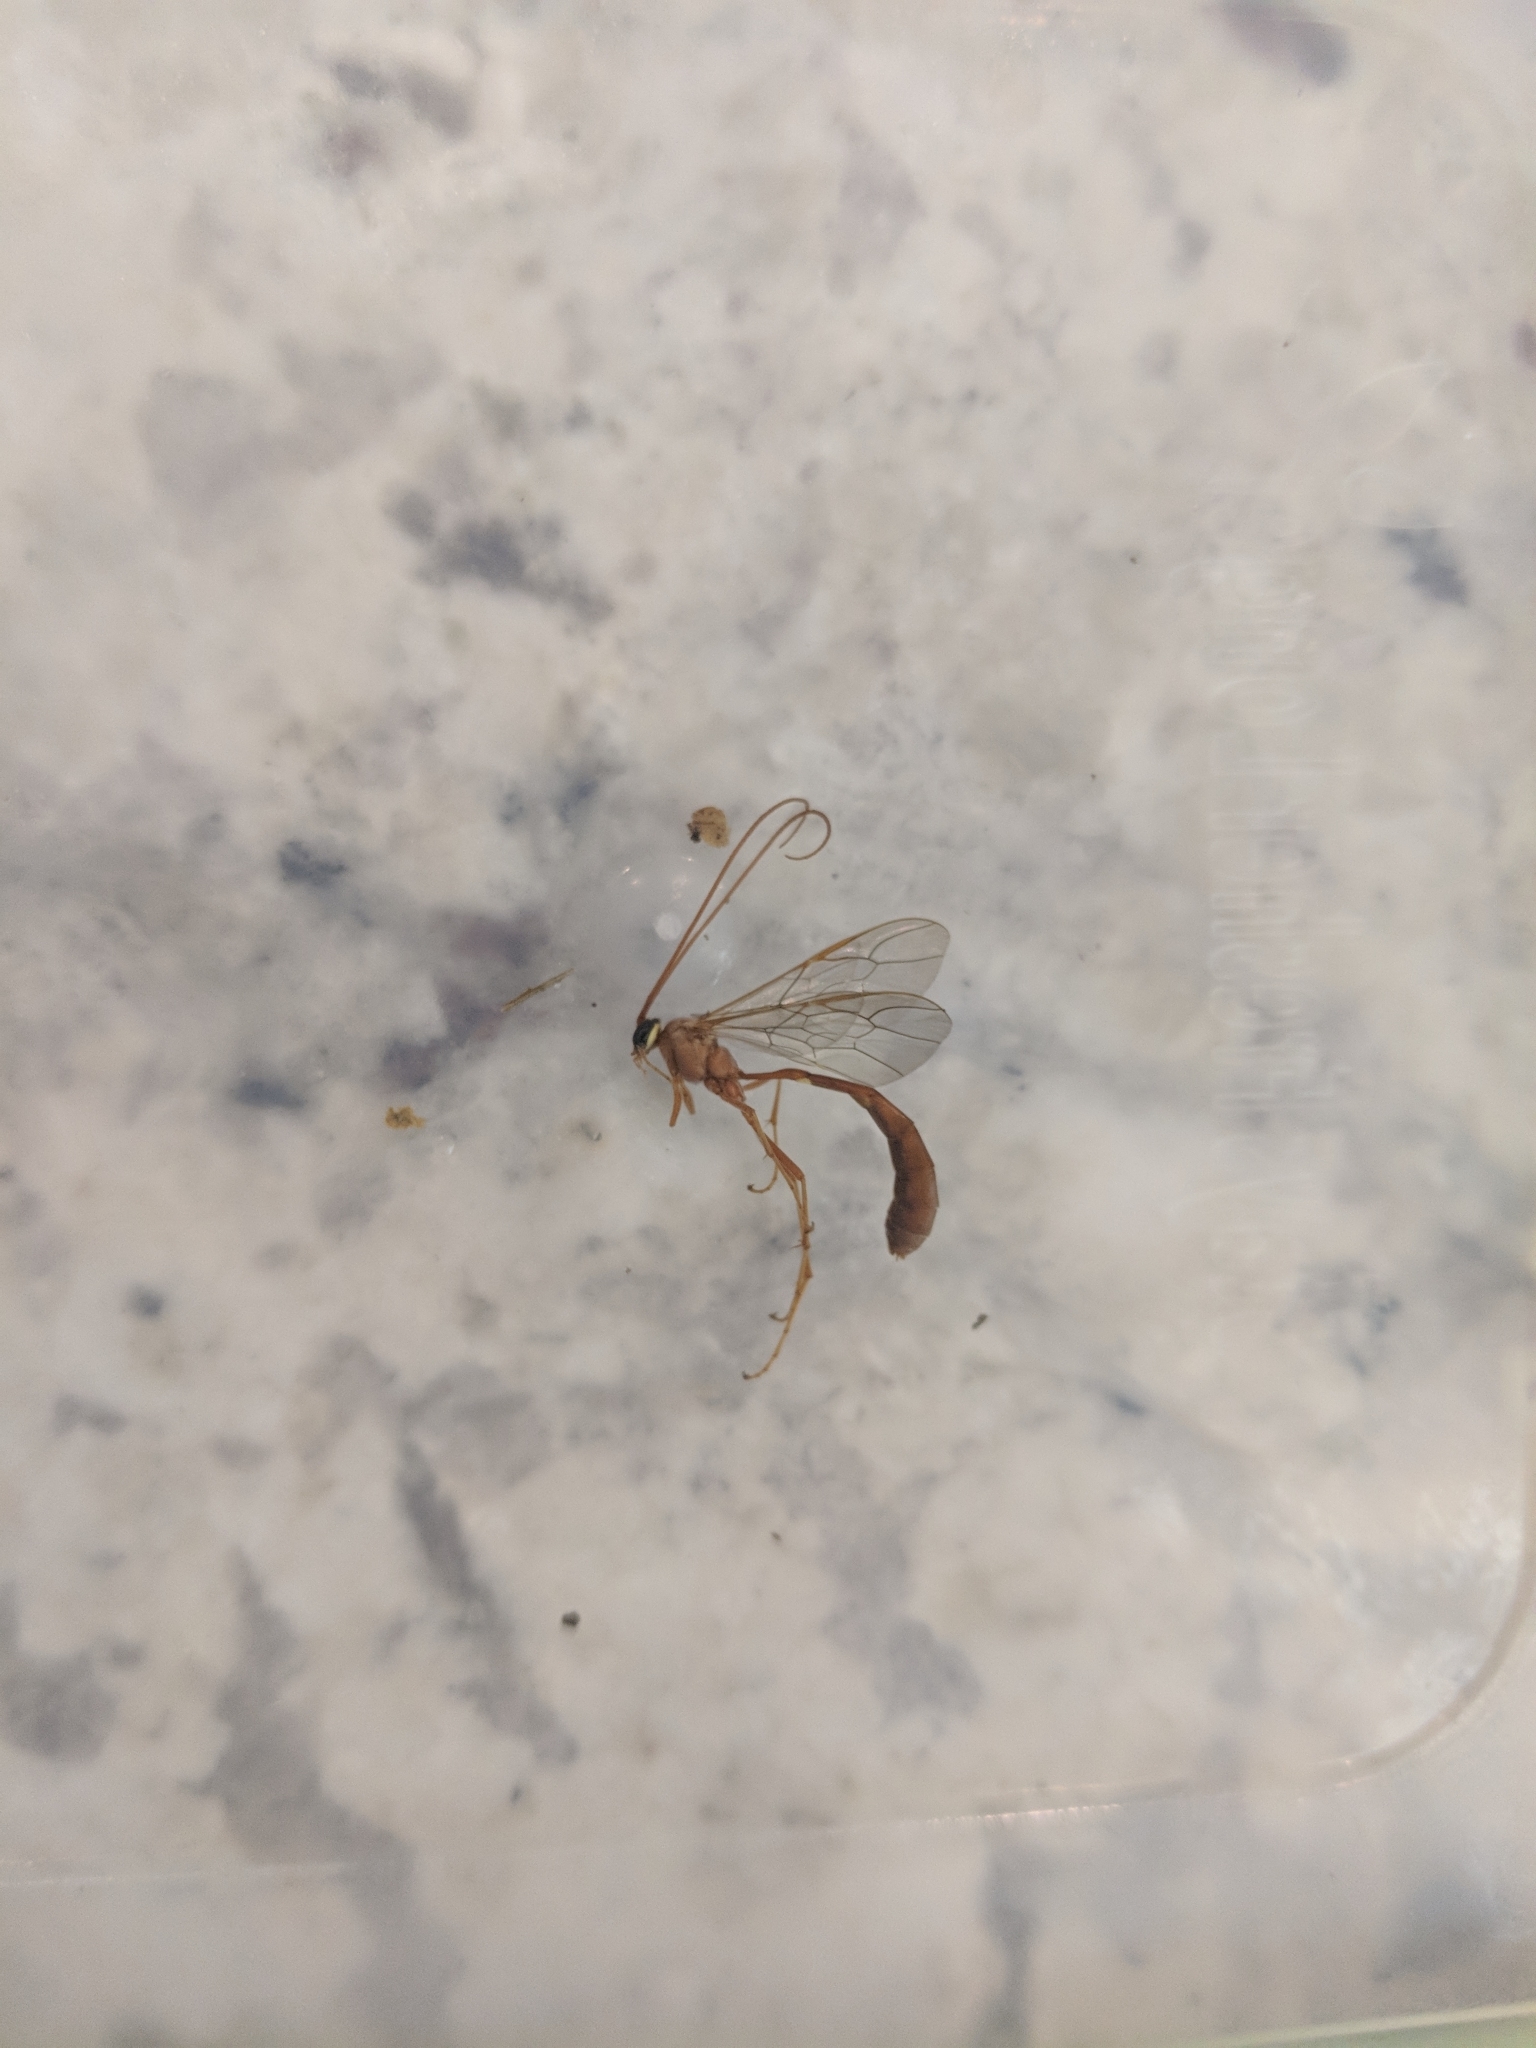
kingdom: Animalia
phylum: Arthropoda
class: Insecta
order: Hymenoptera
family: Ichneumonidae
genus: Enicospilus
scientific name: Enicospilus
